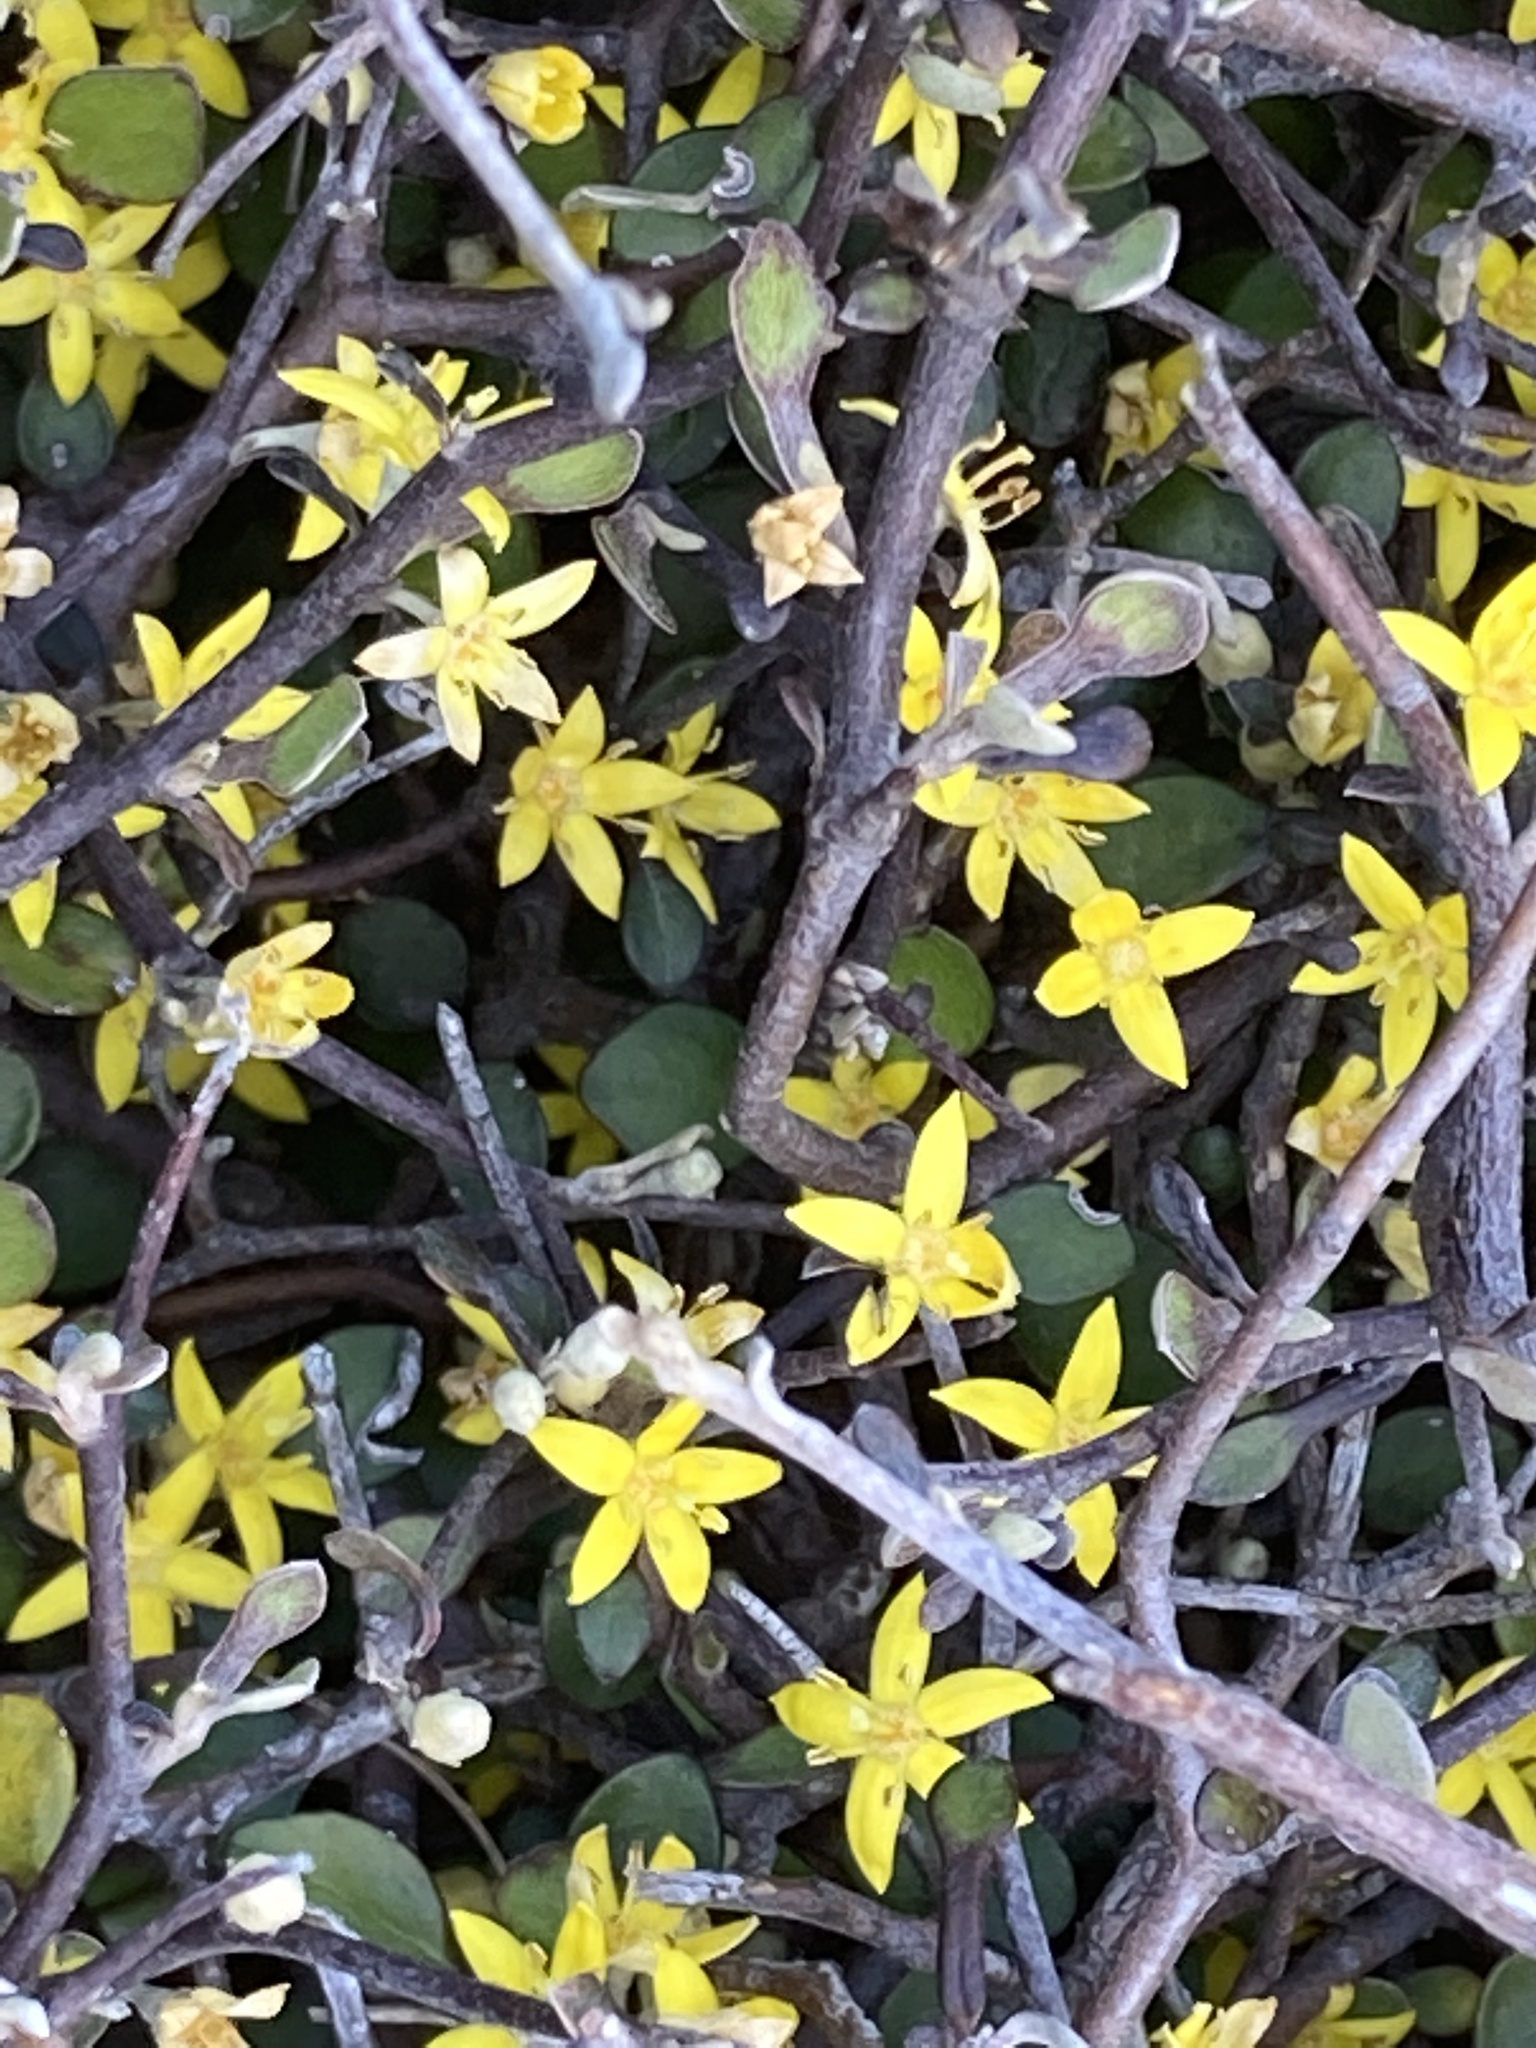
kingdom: Plantae
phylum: Tracheophyta
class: Magnoliopsida
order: Asterales
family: Argophyllaceae
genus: Corokia
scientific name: Corokia cotoneaster
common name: Wire nettingbush
